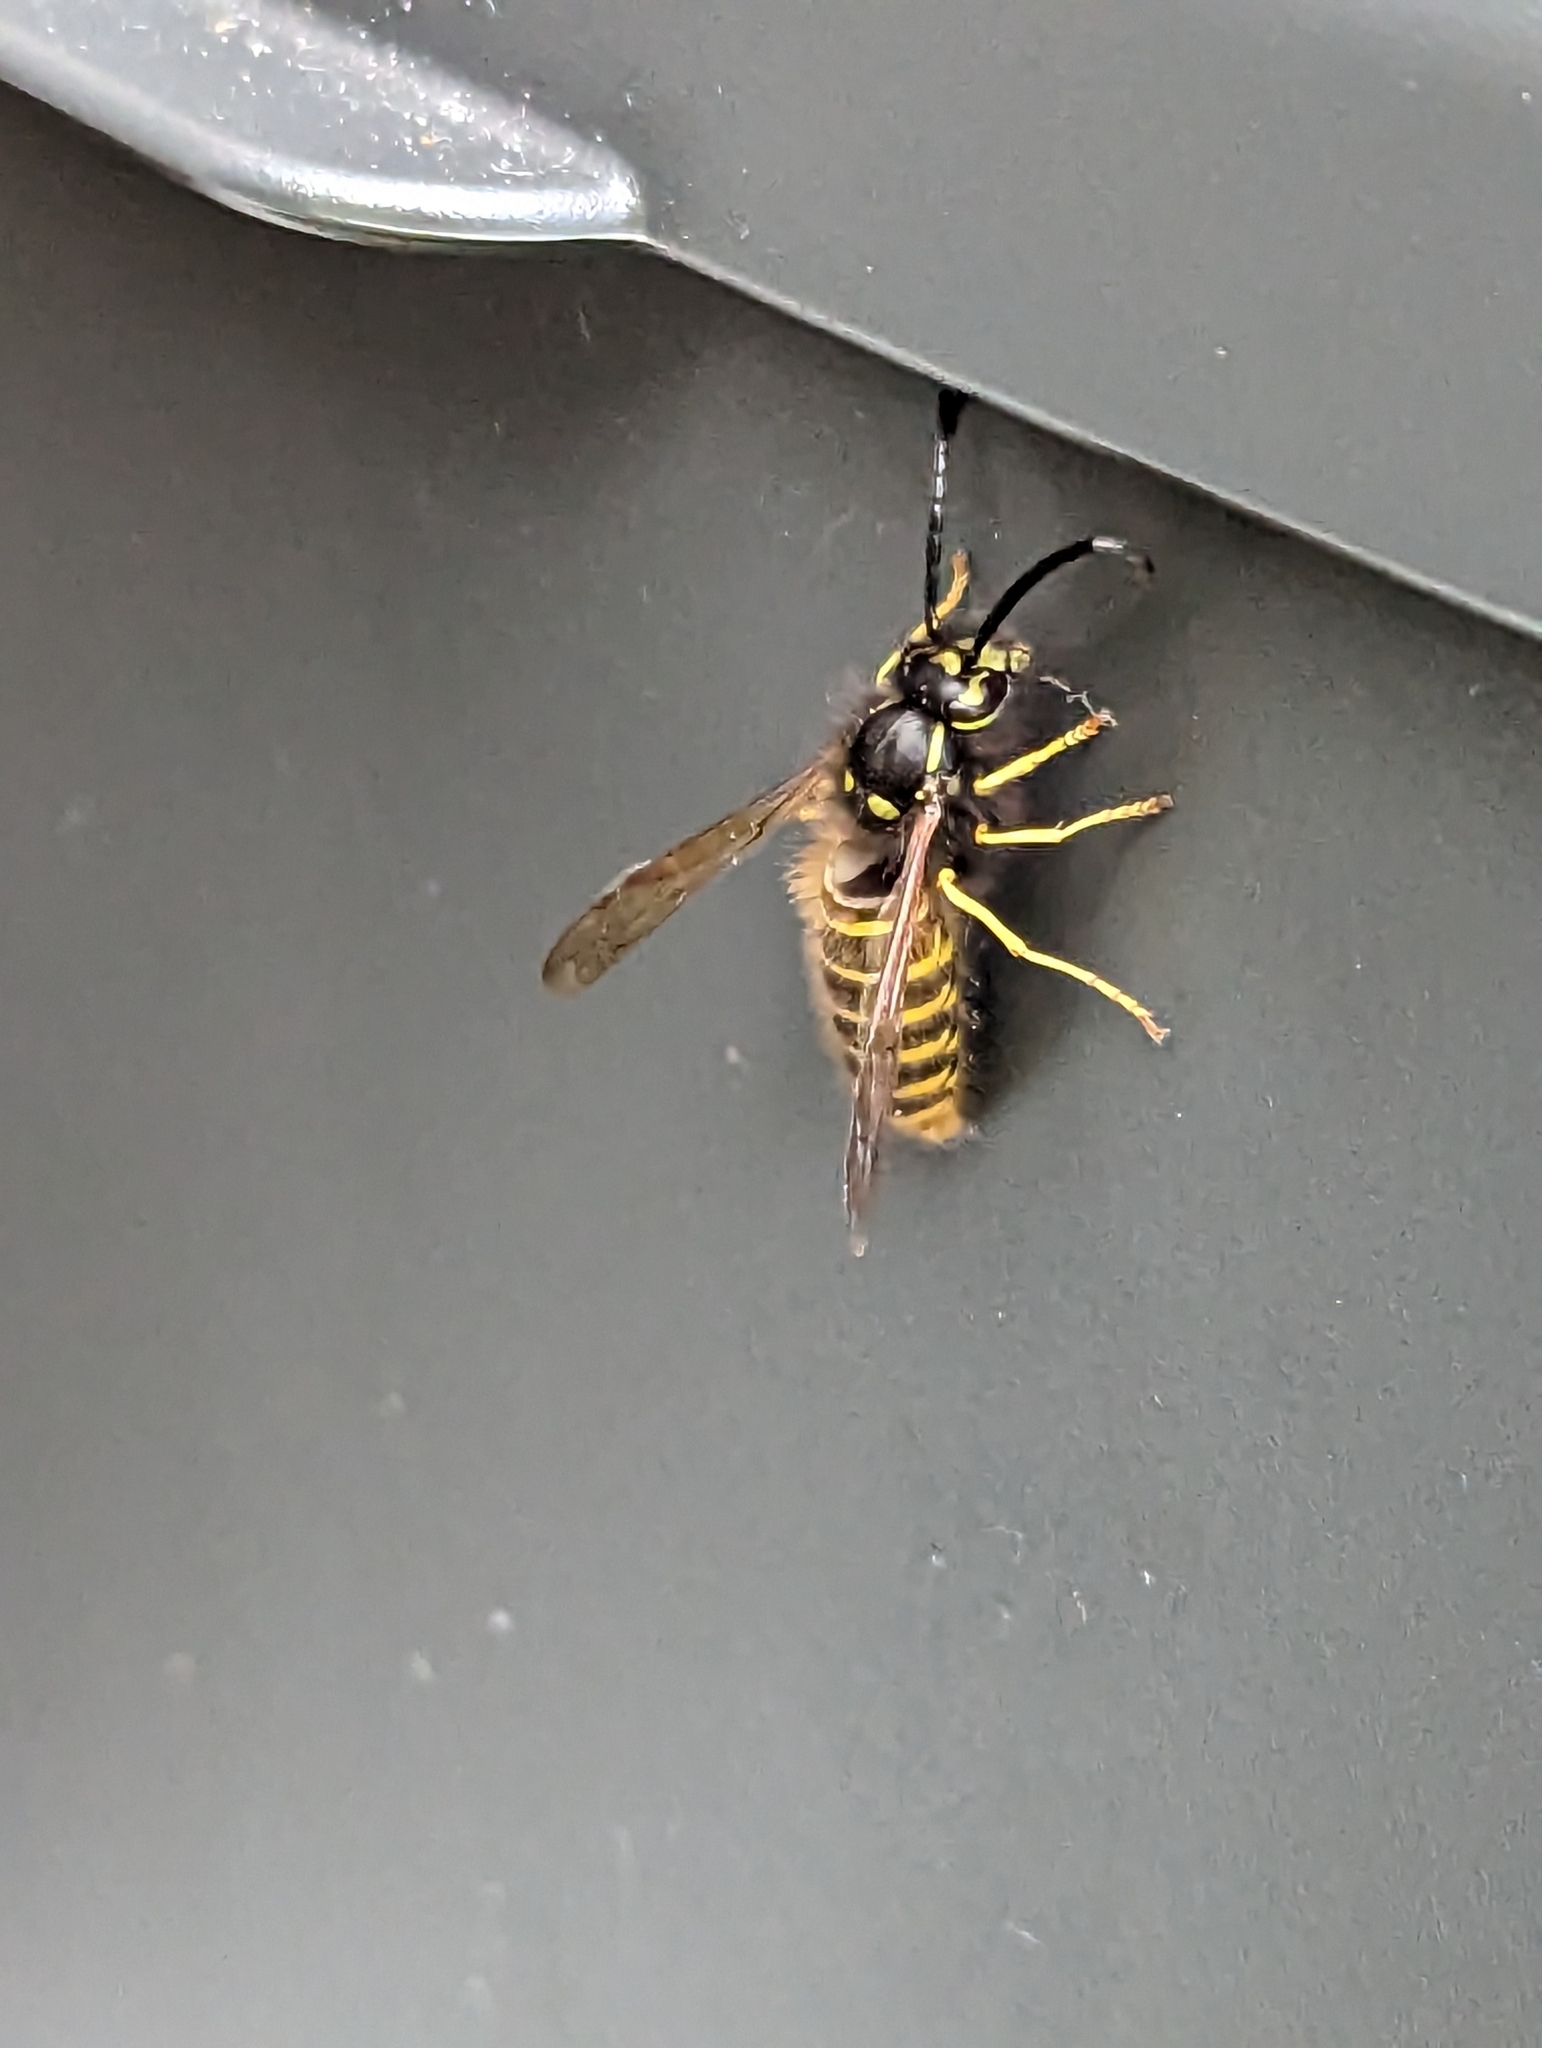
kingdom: Animalia
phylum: Arthropoda
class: Insecta
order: Hymenoptera
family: Vespidae
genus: Vespula
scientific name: Vespula vulgaris
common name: Common wasp
